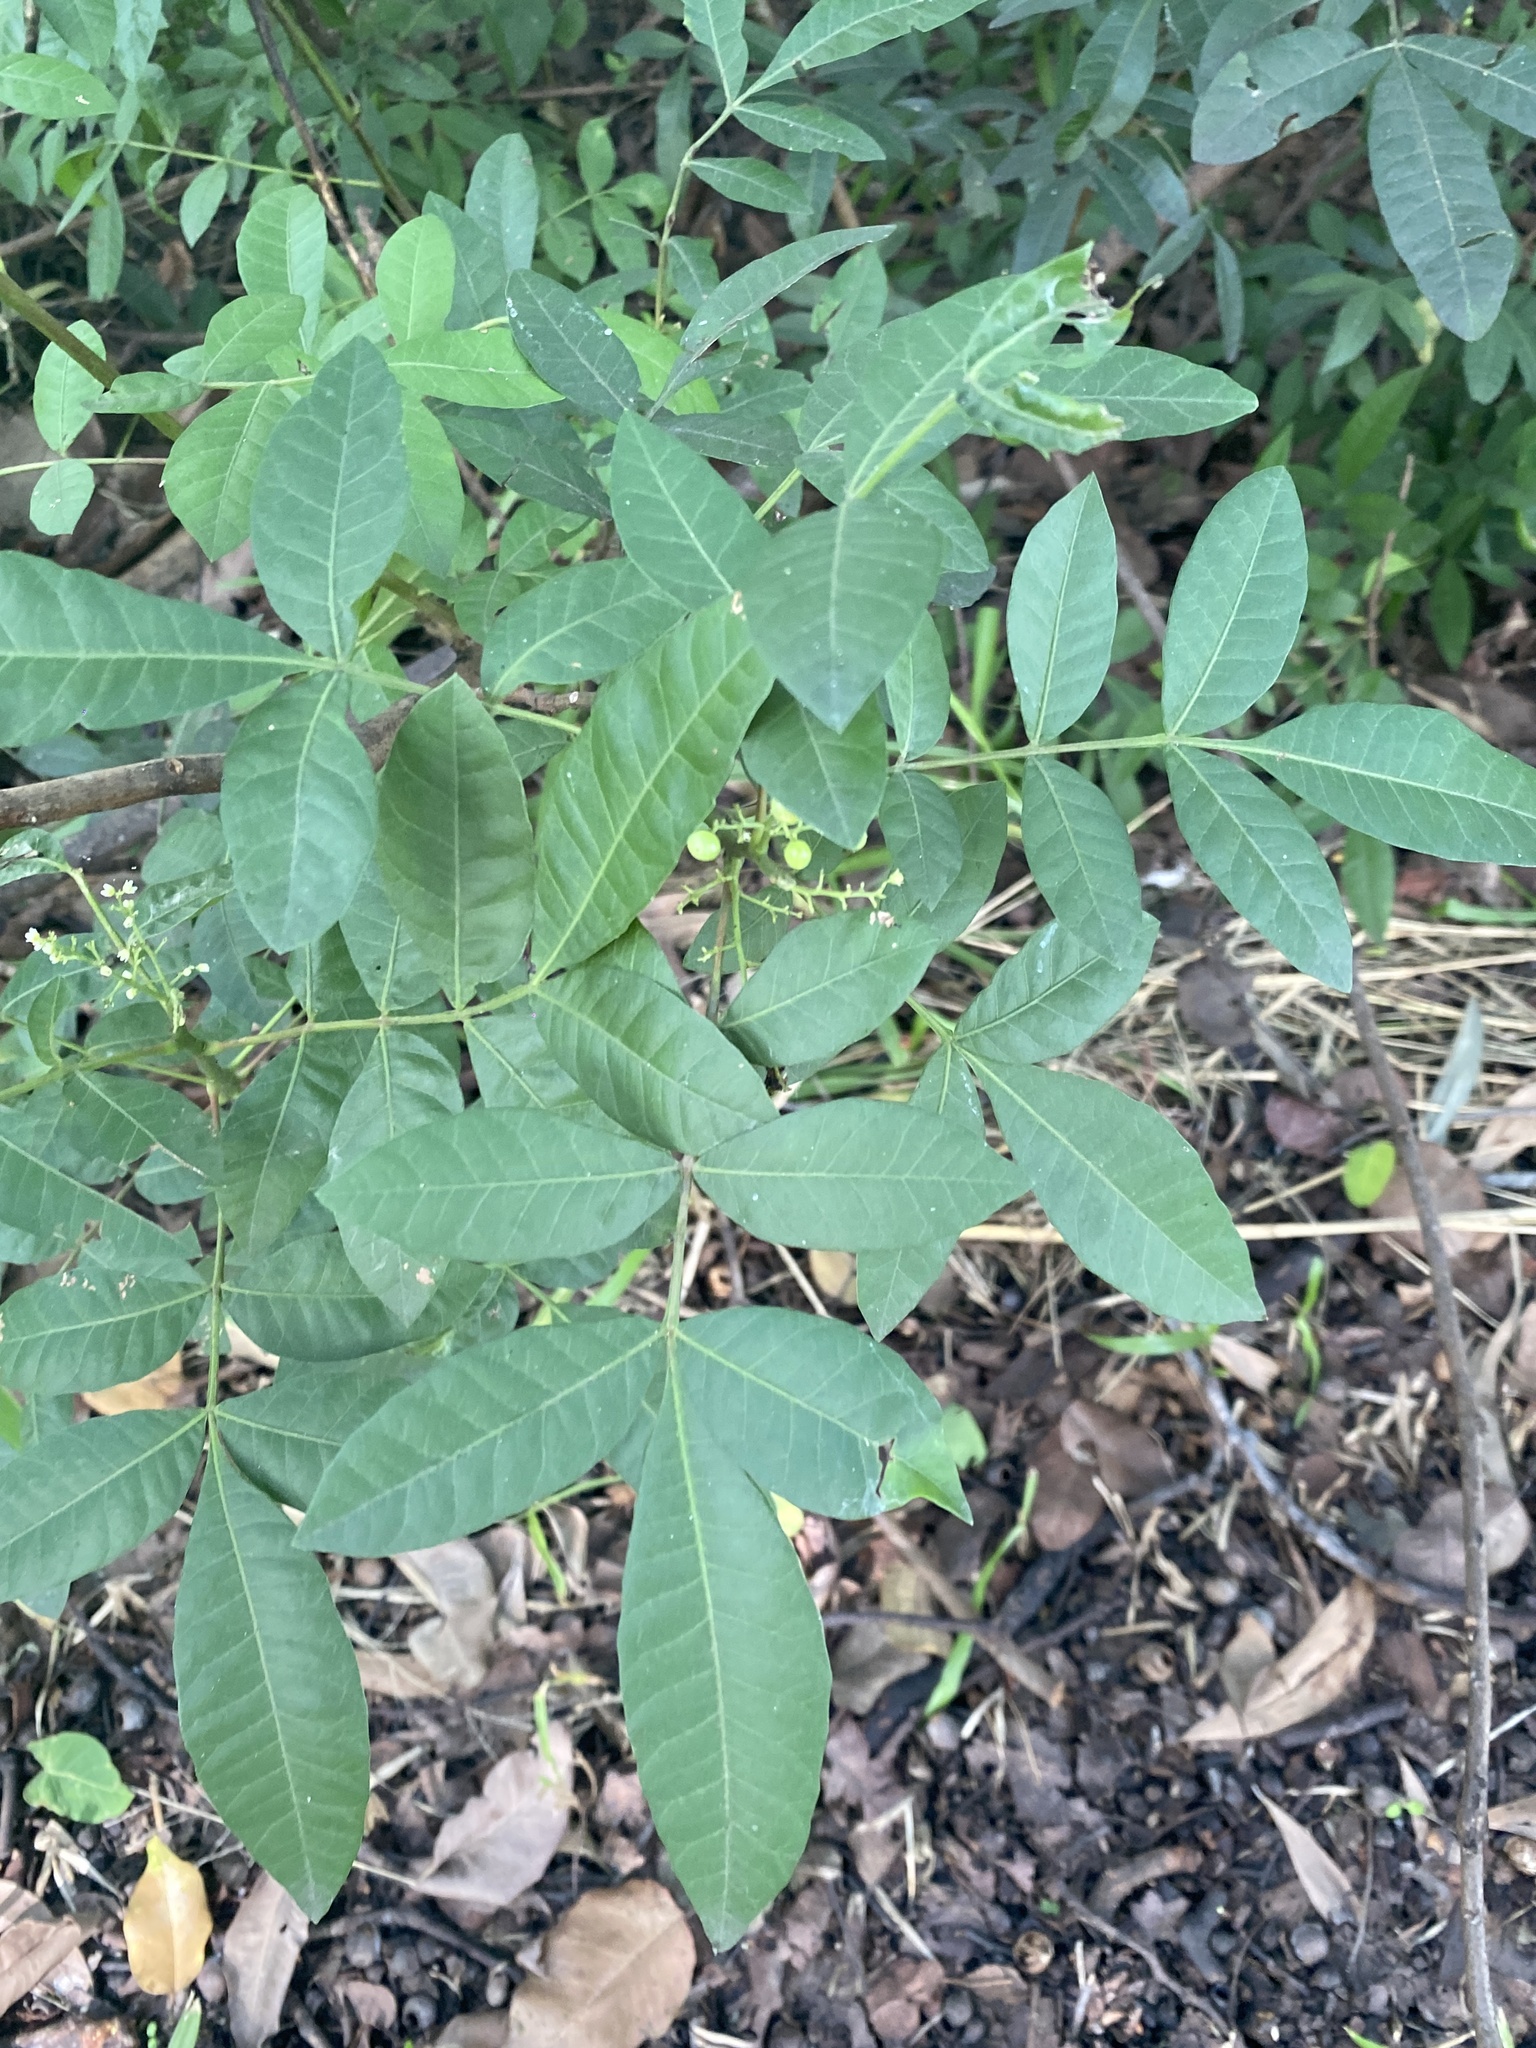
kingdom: Plantae
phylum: Tracheophyta
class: Magnoliopsida
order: Sapindales
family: Anacardiaceae
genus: Schinus
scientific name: Schinus terebinthifolia
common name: Brazilian peppertree
